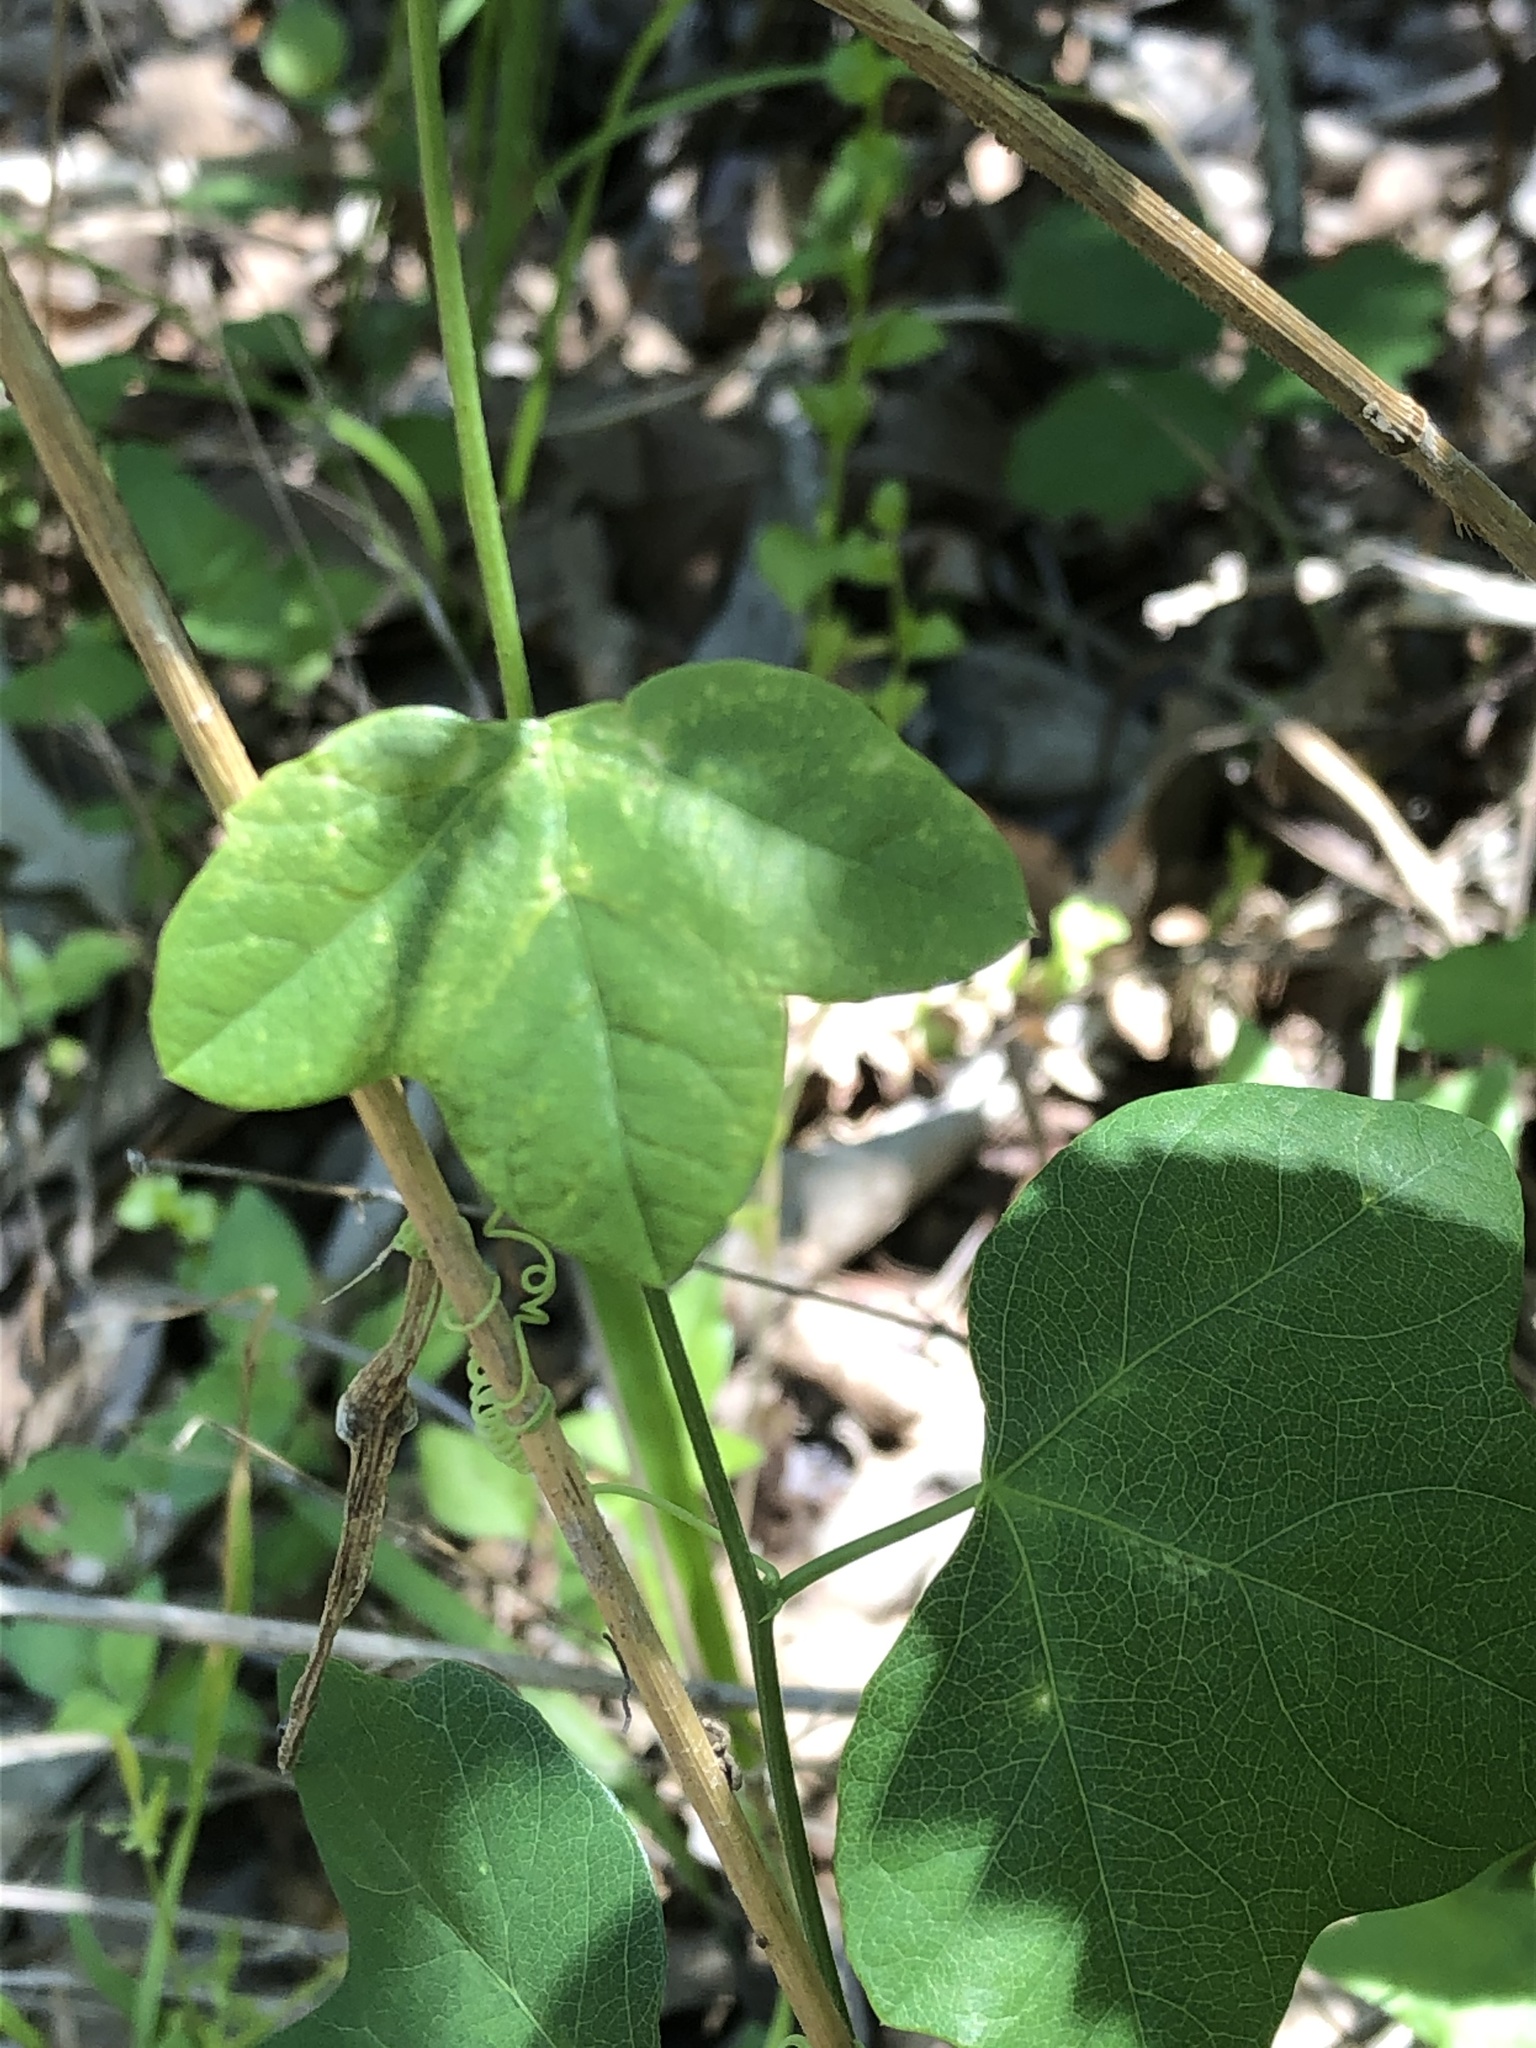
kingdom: Plantae
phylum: Tracheophyta
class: Magnoliopsida
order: Malpighiales
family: Passifloraceae
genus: Passiflora
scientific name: Passiflora lutea
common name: Yellow passionflower
